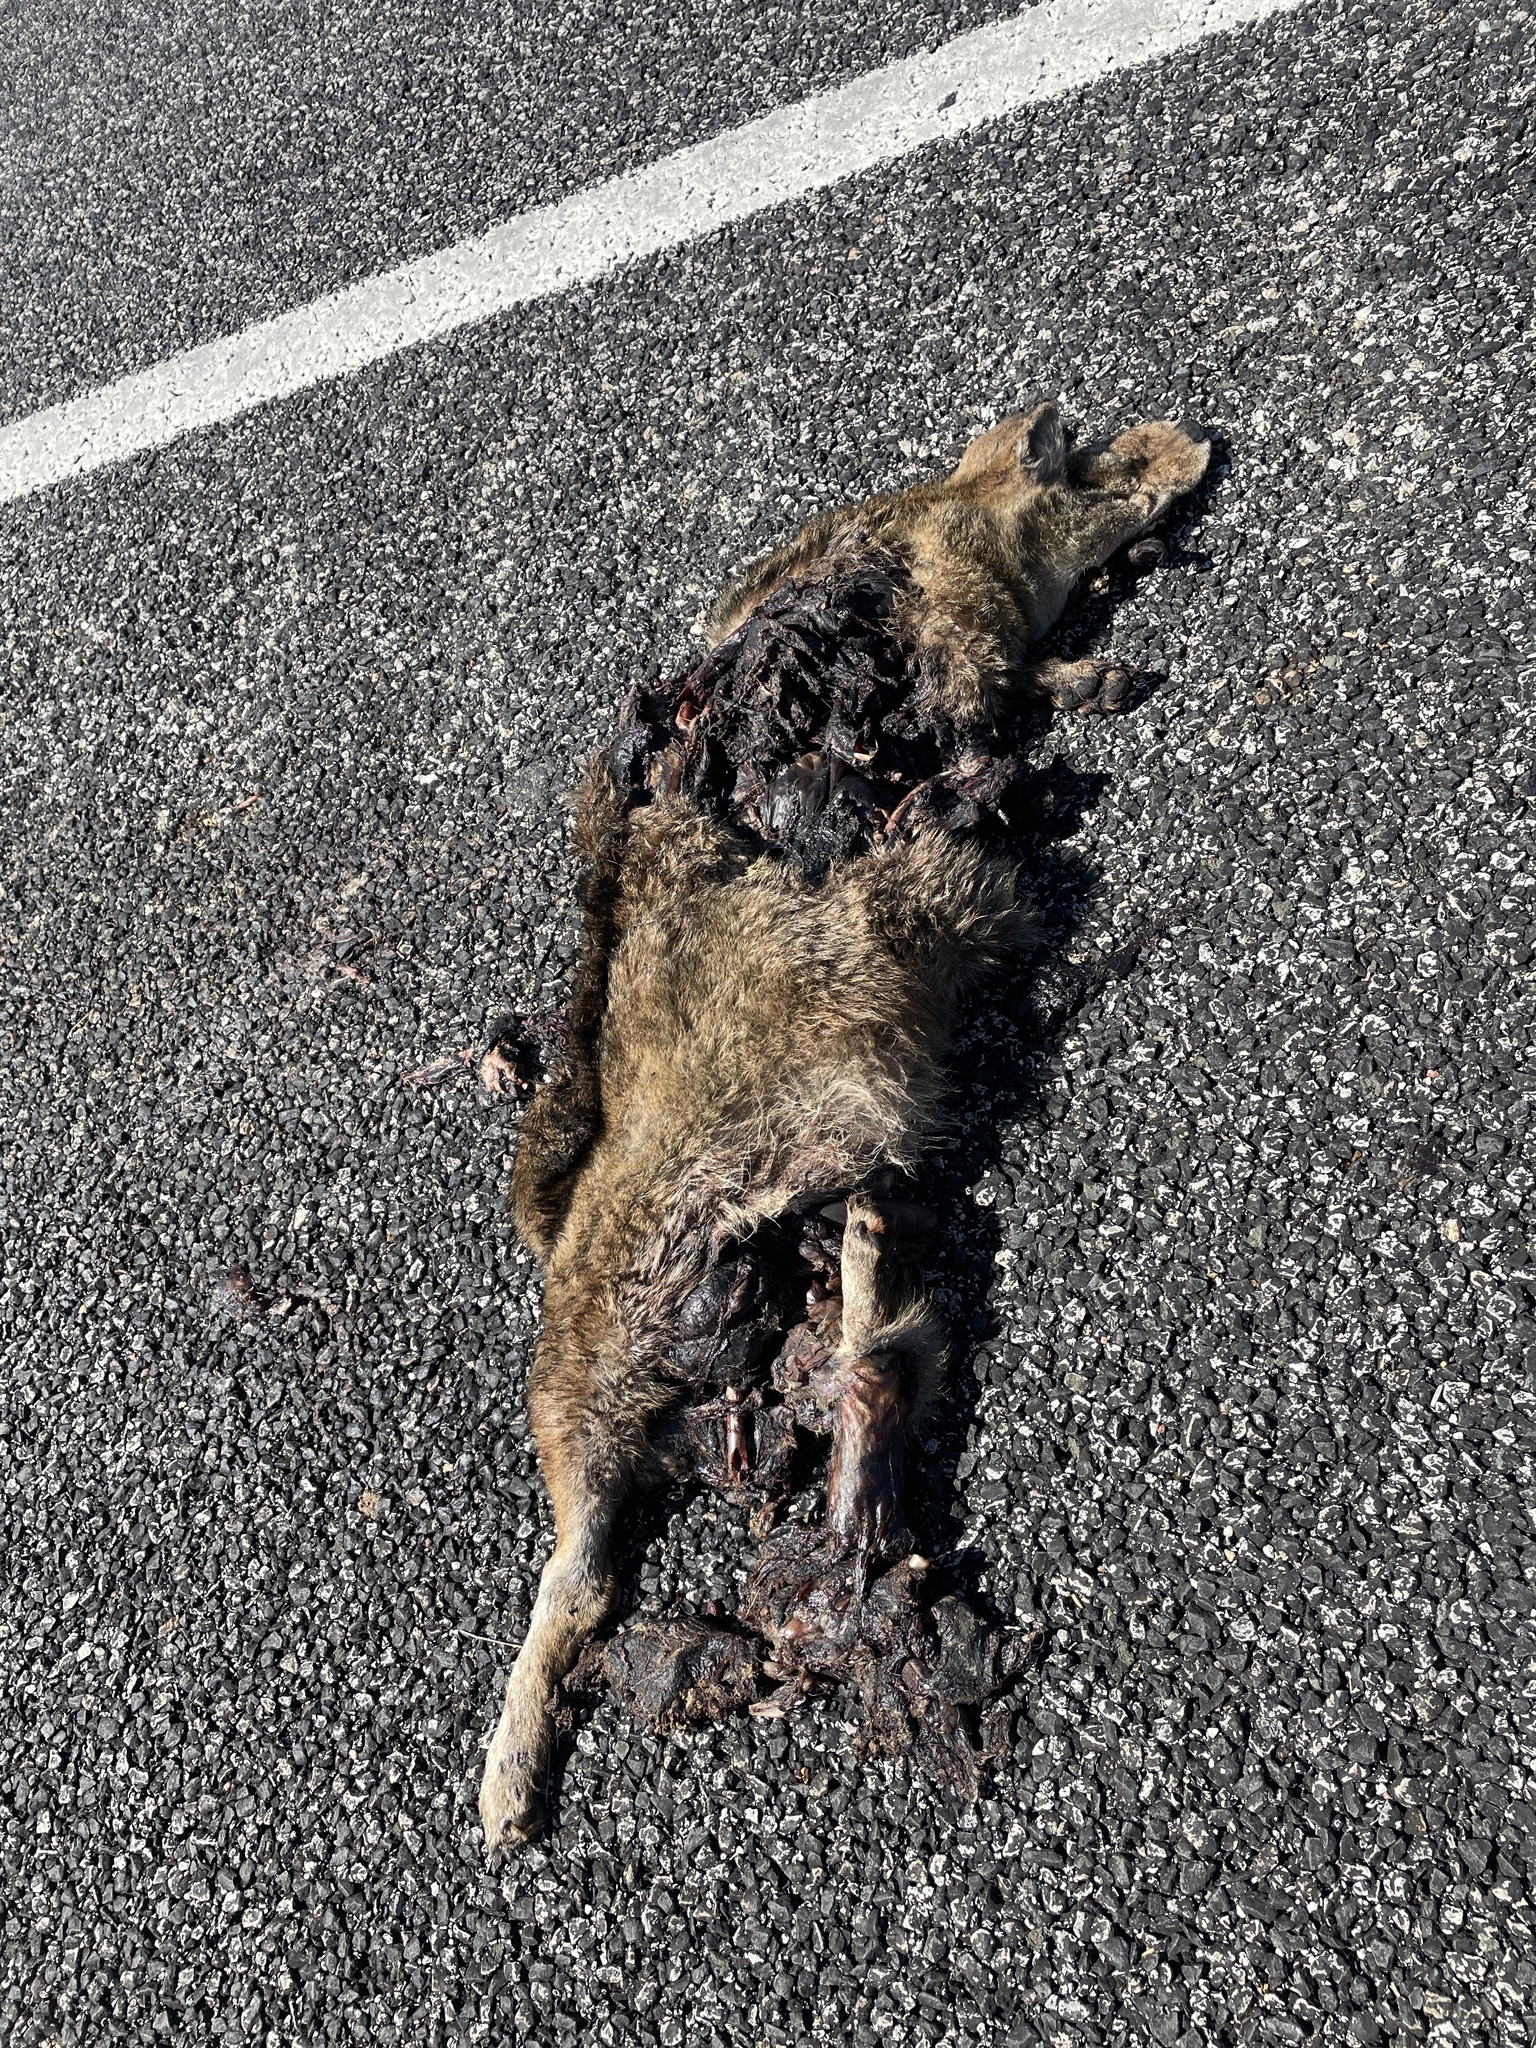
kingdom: Animalia
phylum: Chordata
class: Mammalia
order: Carnivora
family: Canidae
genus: Canis
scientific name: Canis latrans
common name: Coyote
